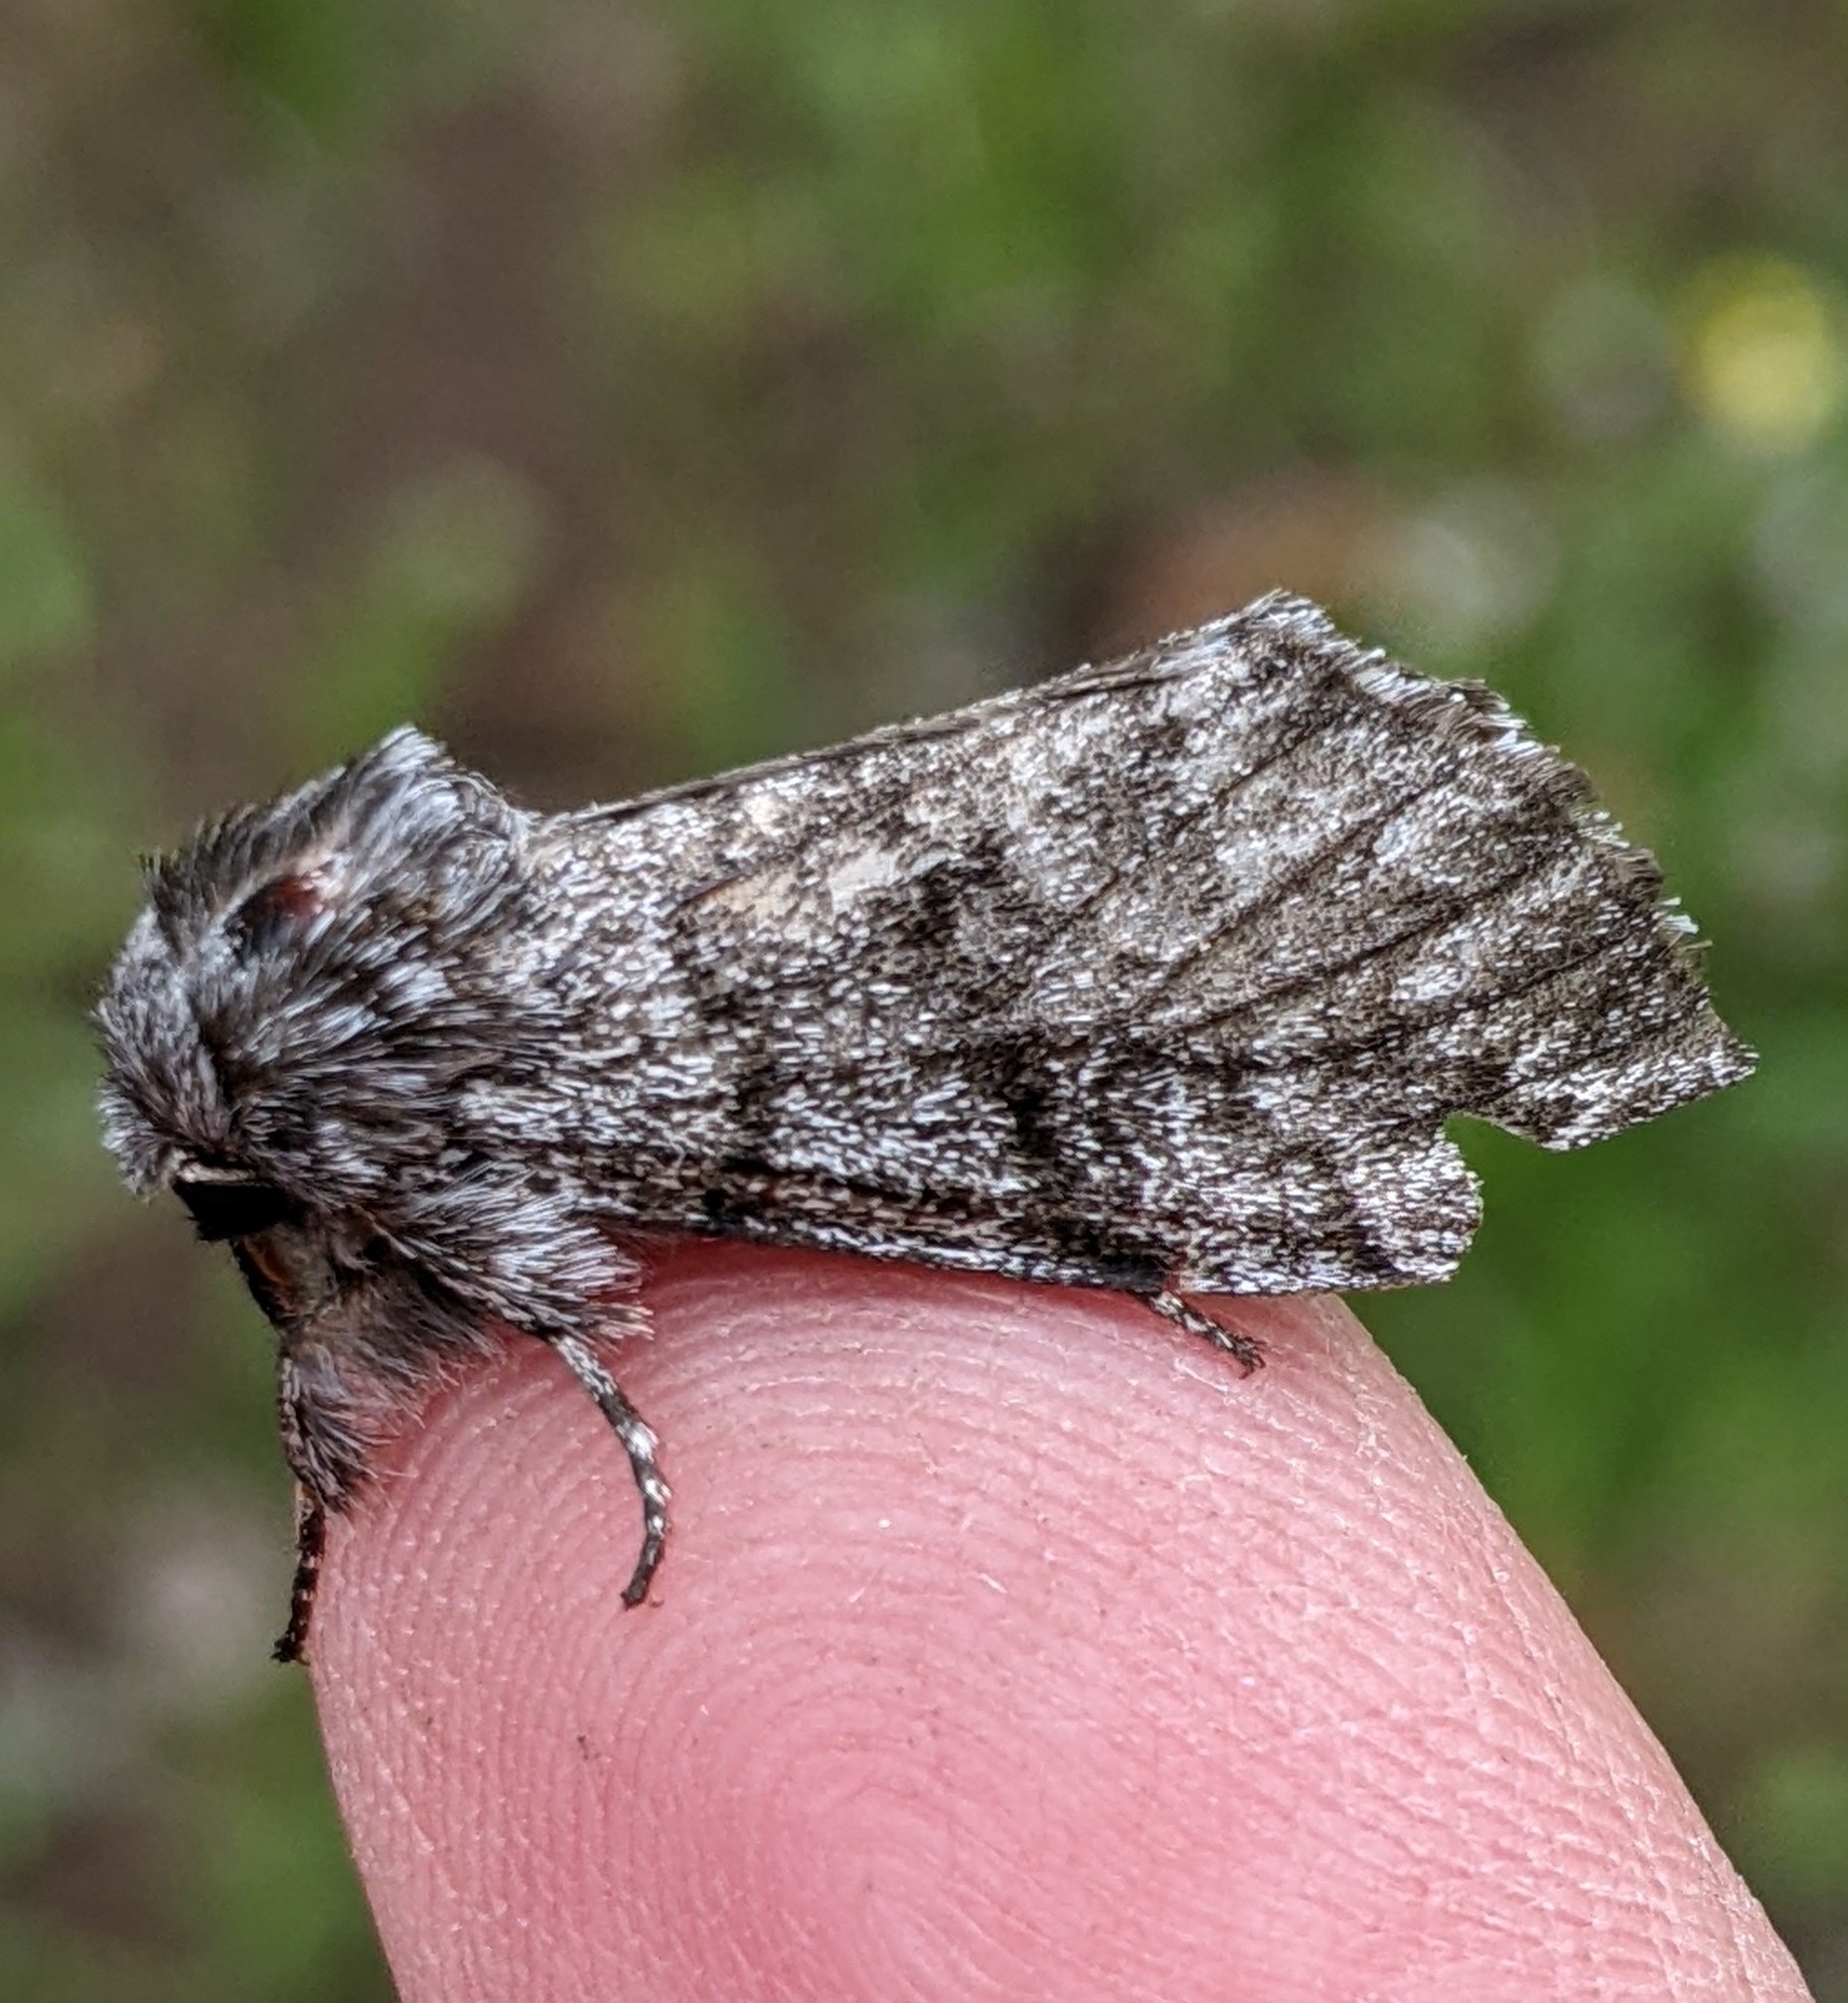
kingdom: Animalia
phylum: Arthropoda
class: Insecta
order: Lepidoptera
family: Noctuidae
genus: Panthea
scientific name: Panthea virginarius
